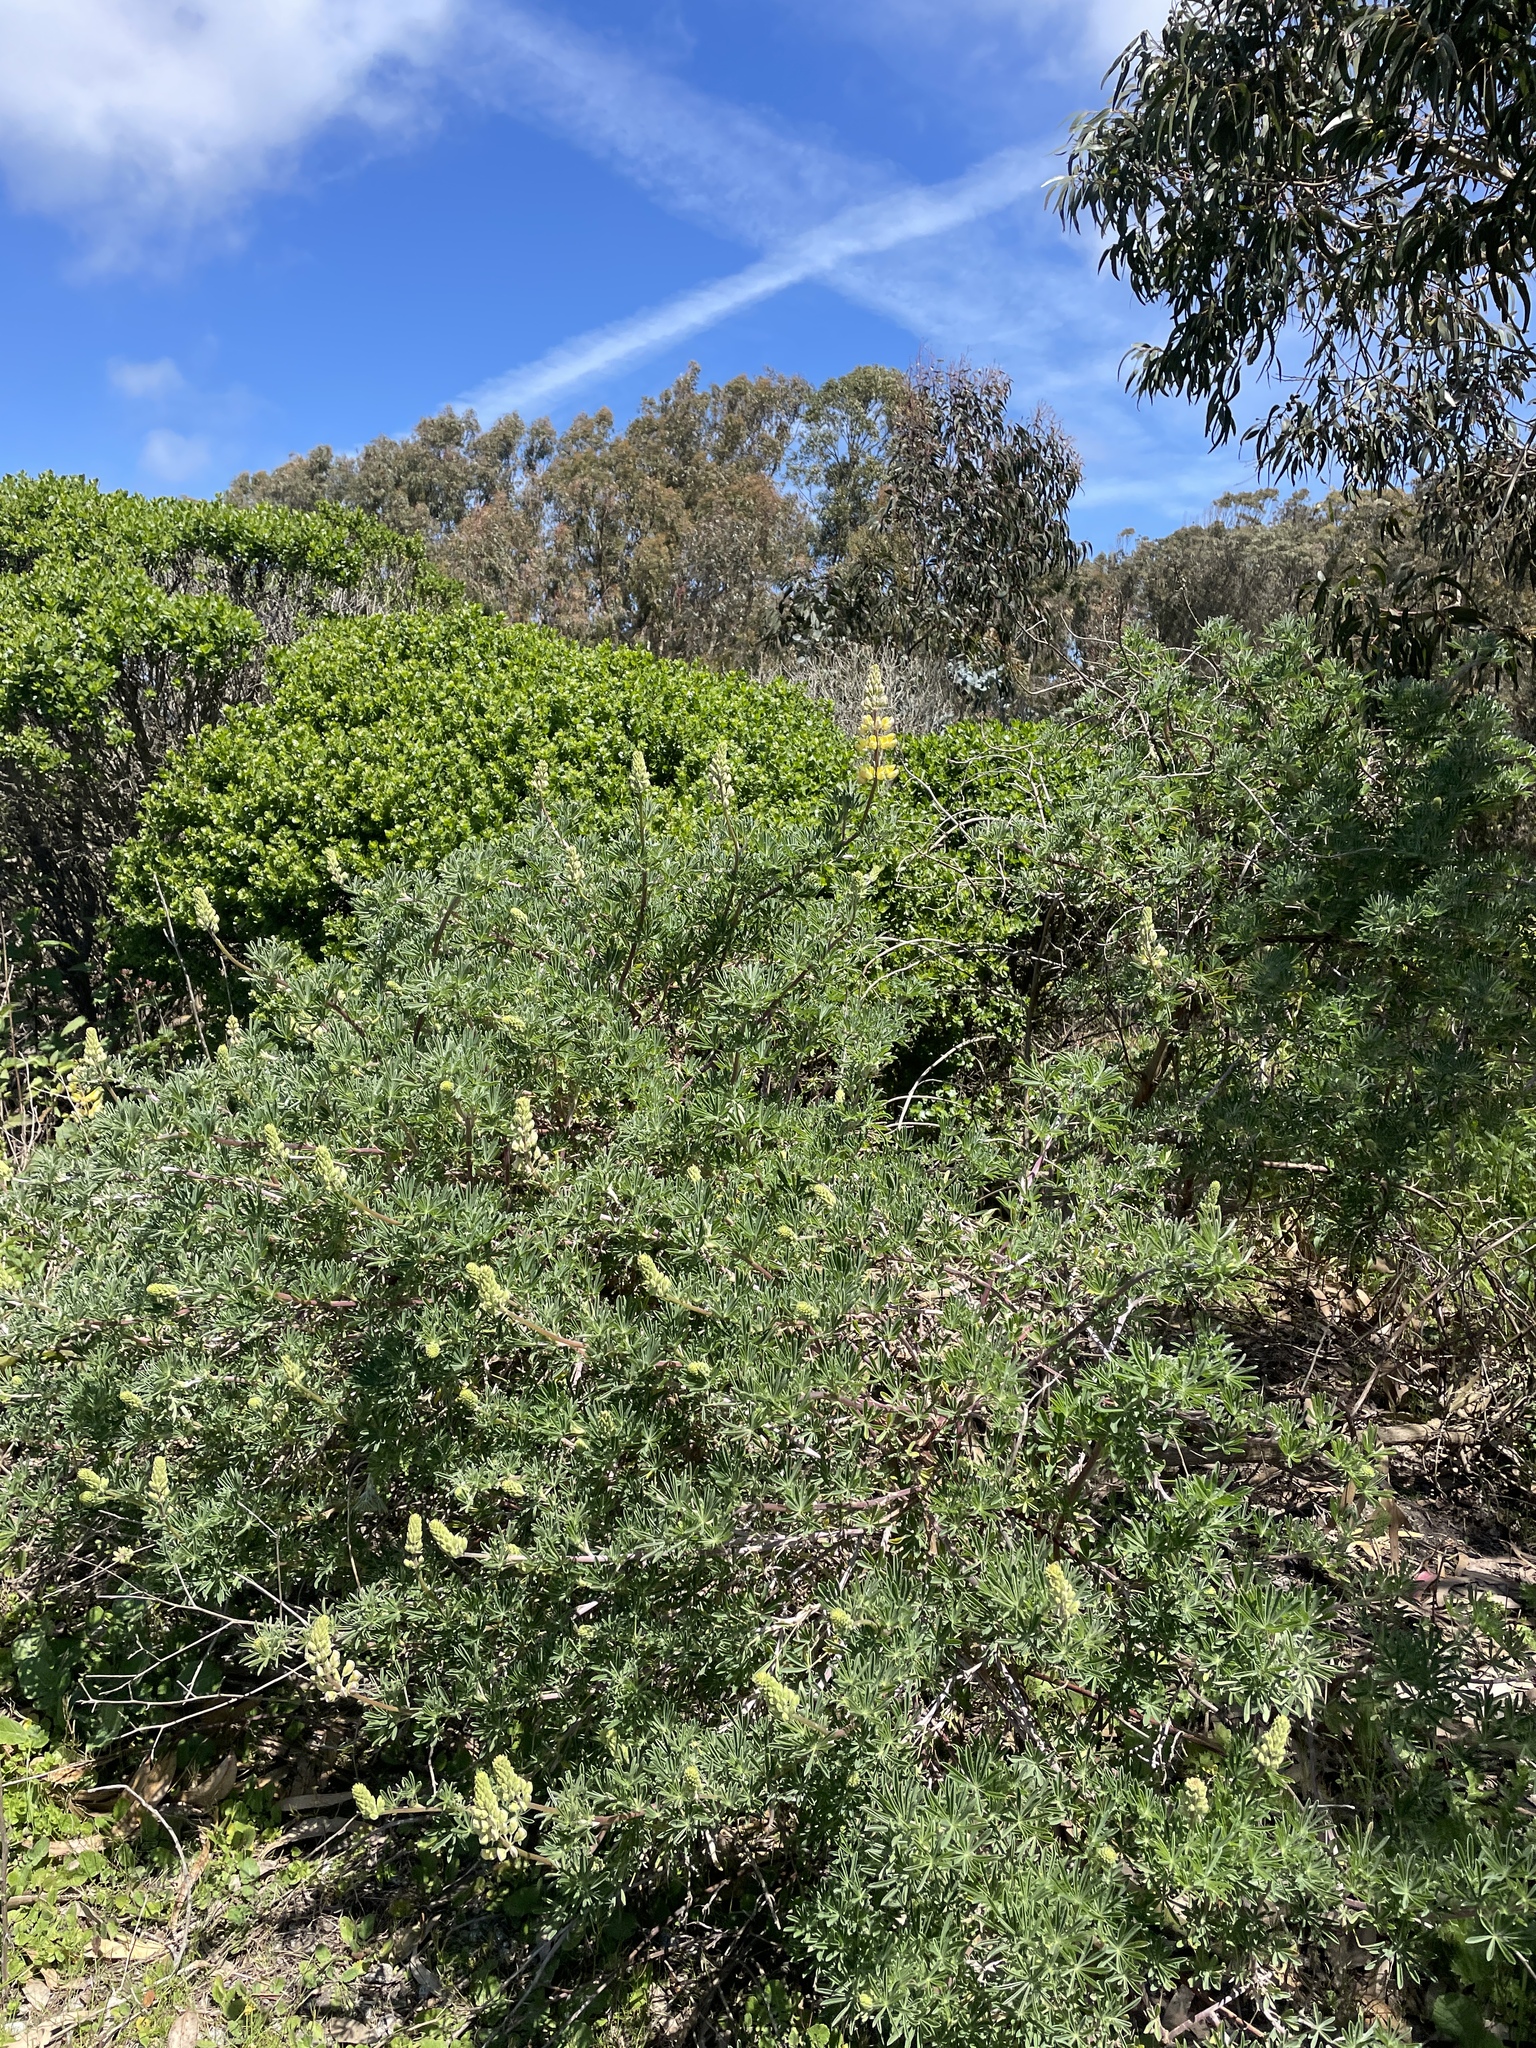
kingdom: Plantae
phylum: Tracheophyta
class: Magnoliopsida
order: Fabales
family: Fabaceae
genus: Lupinus
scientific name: Lupinus arboreus
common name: Yellow bush lupine
